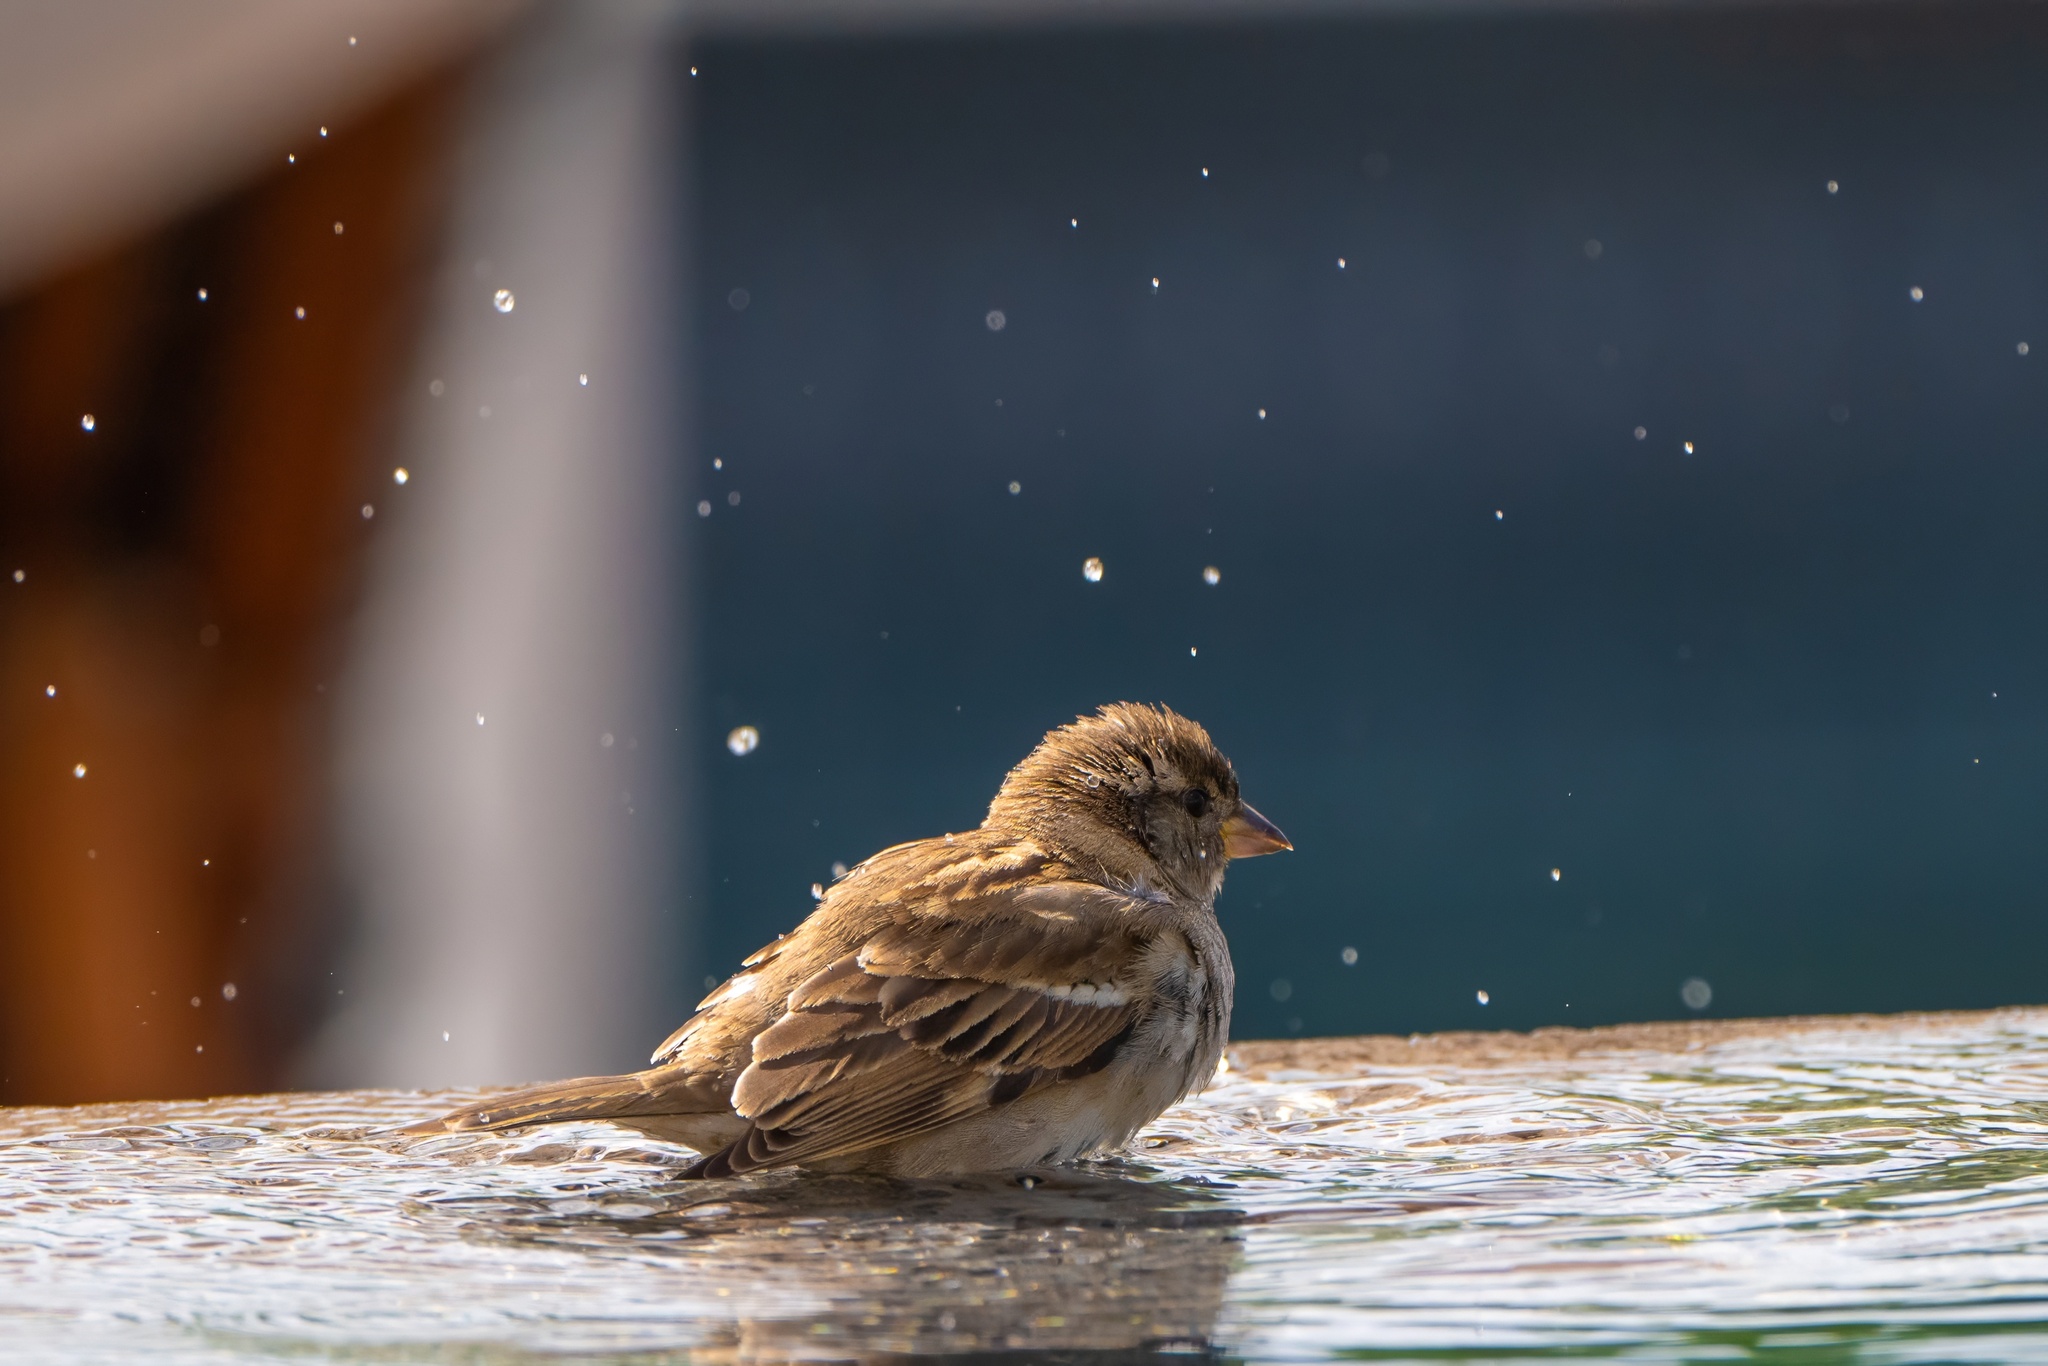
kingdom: Animalia
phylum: Chordata
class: Aves
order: Passeriformes
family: Passeridae
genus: Passer
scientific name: Passer domesticus
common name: House sparrow
